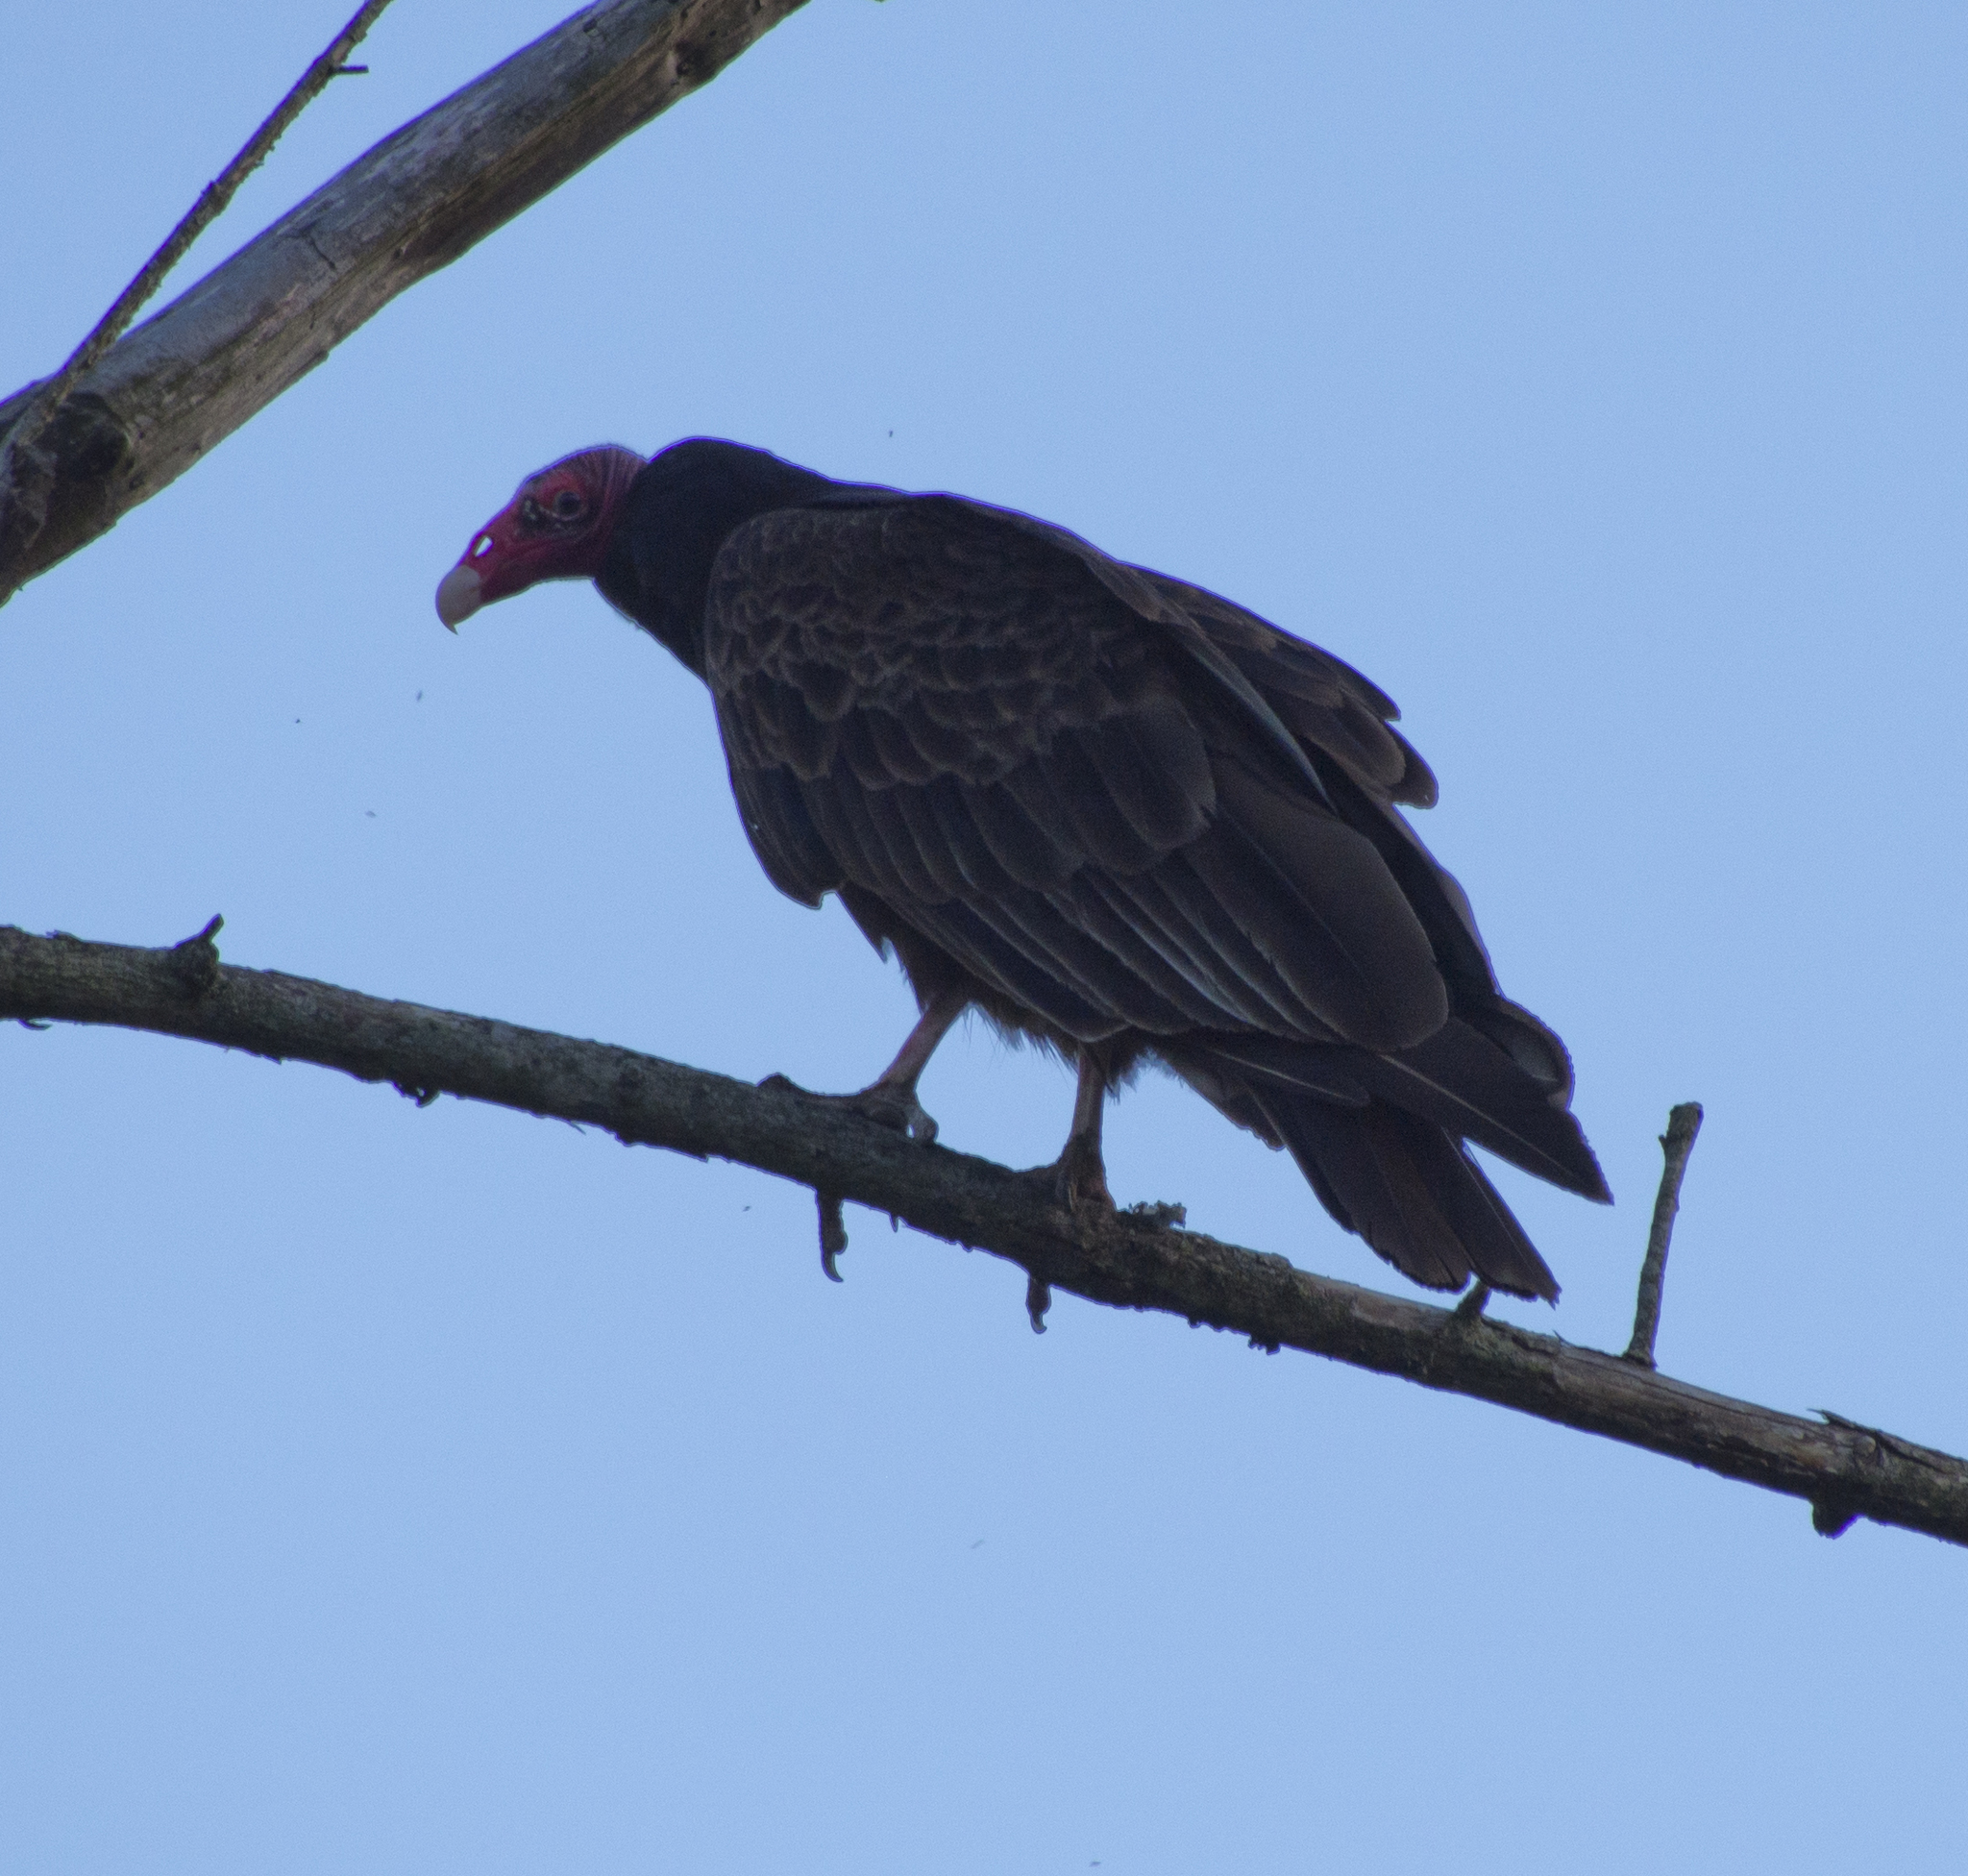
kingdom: Animalia
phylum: Chordata
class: Aves
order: Accipitriformes
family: Cathartidae
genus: Cathartes
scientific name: Cathartes aura
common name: Turkey vulture
